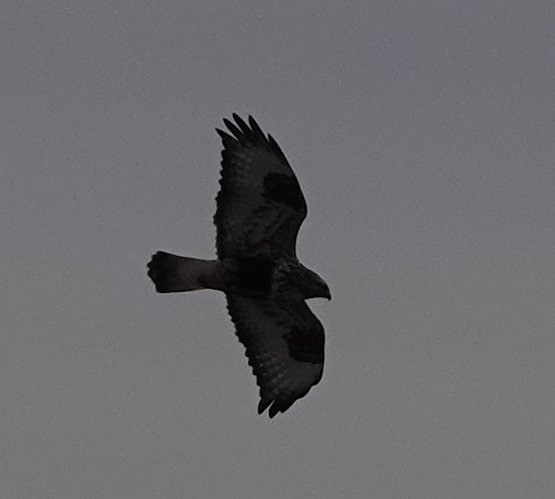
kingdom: Animalia
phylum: Chordata
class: Aves
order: Accipitriformes
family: Accipitridae
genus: Buteo
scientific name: Buteo lagopus
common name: Rough-legged buzzard
